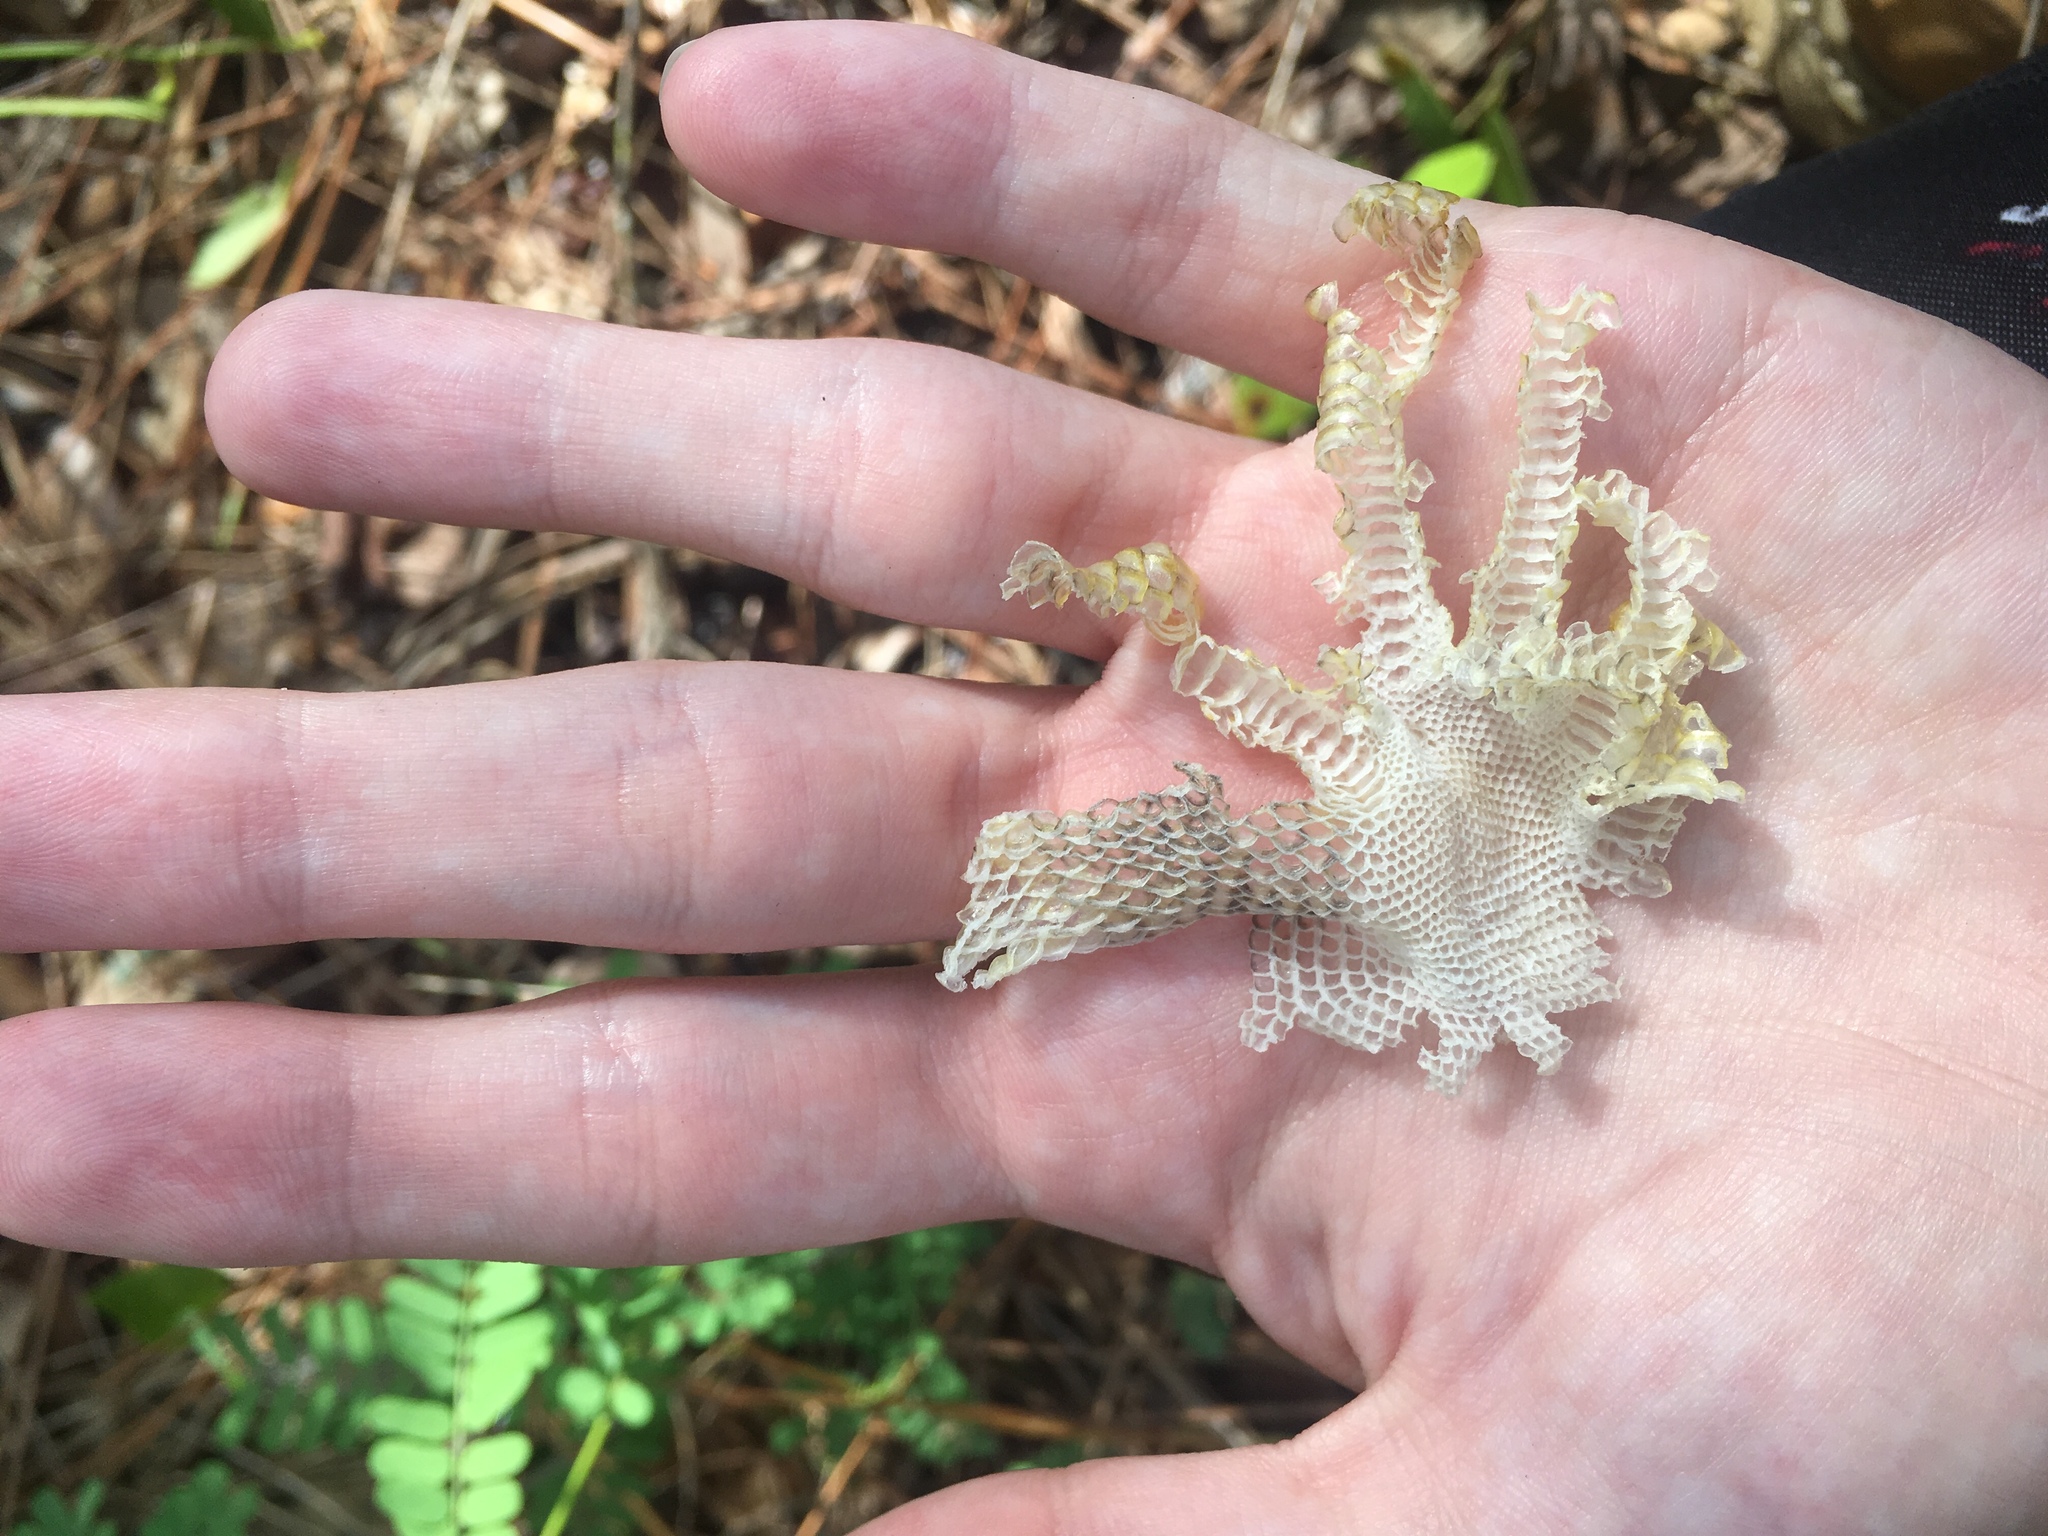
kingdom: Animalia
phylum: Chordata
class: Squamata
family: Iguanidae
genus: Iguana
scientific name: Iguana iguana
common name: Green iguana
